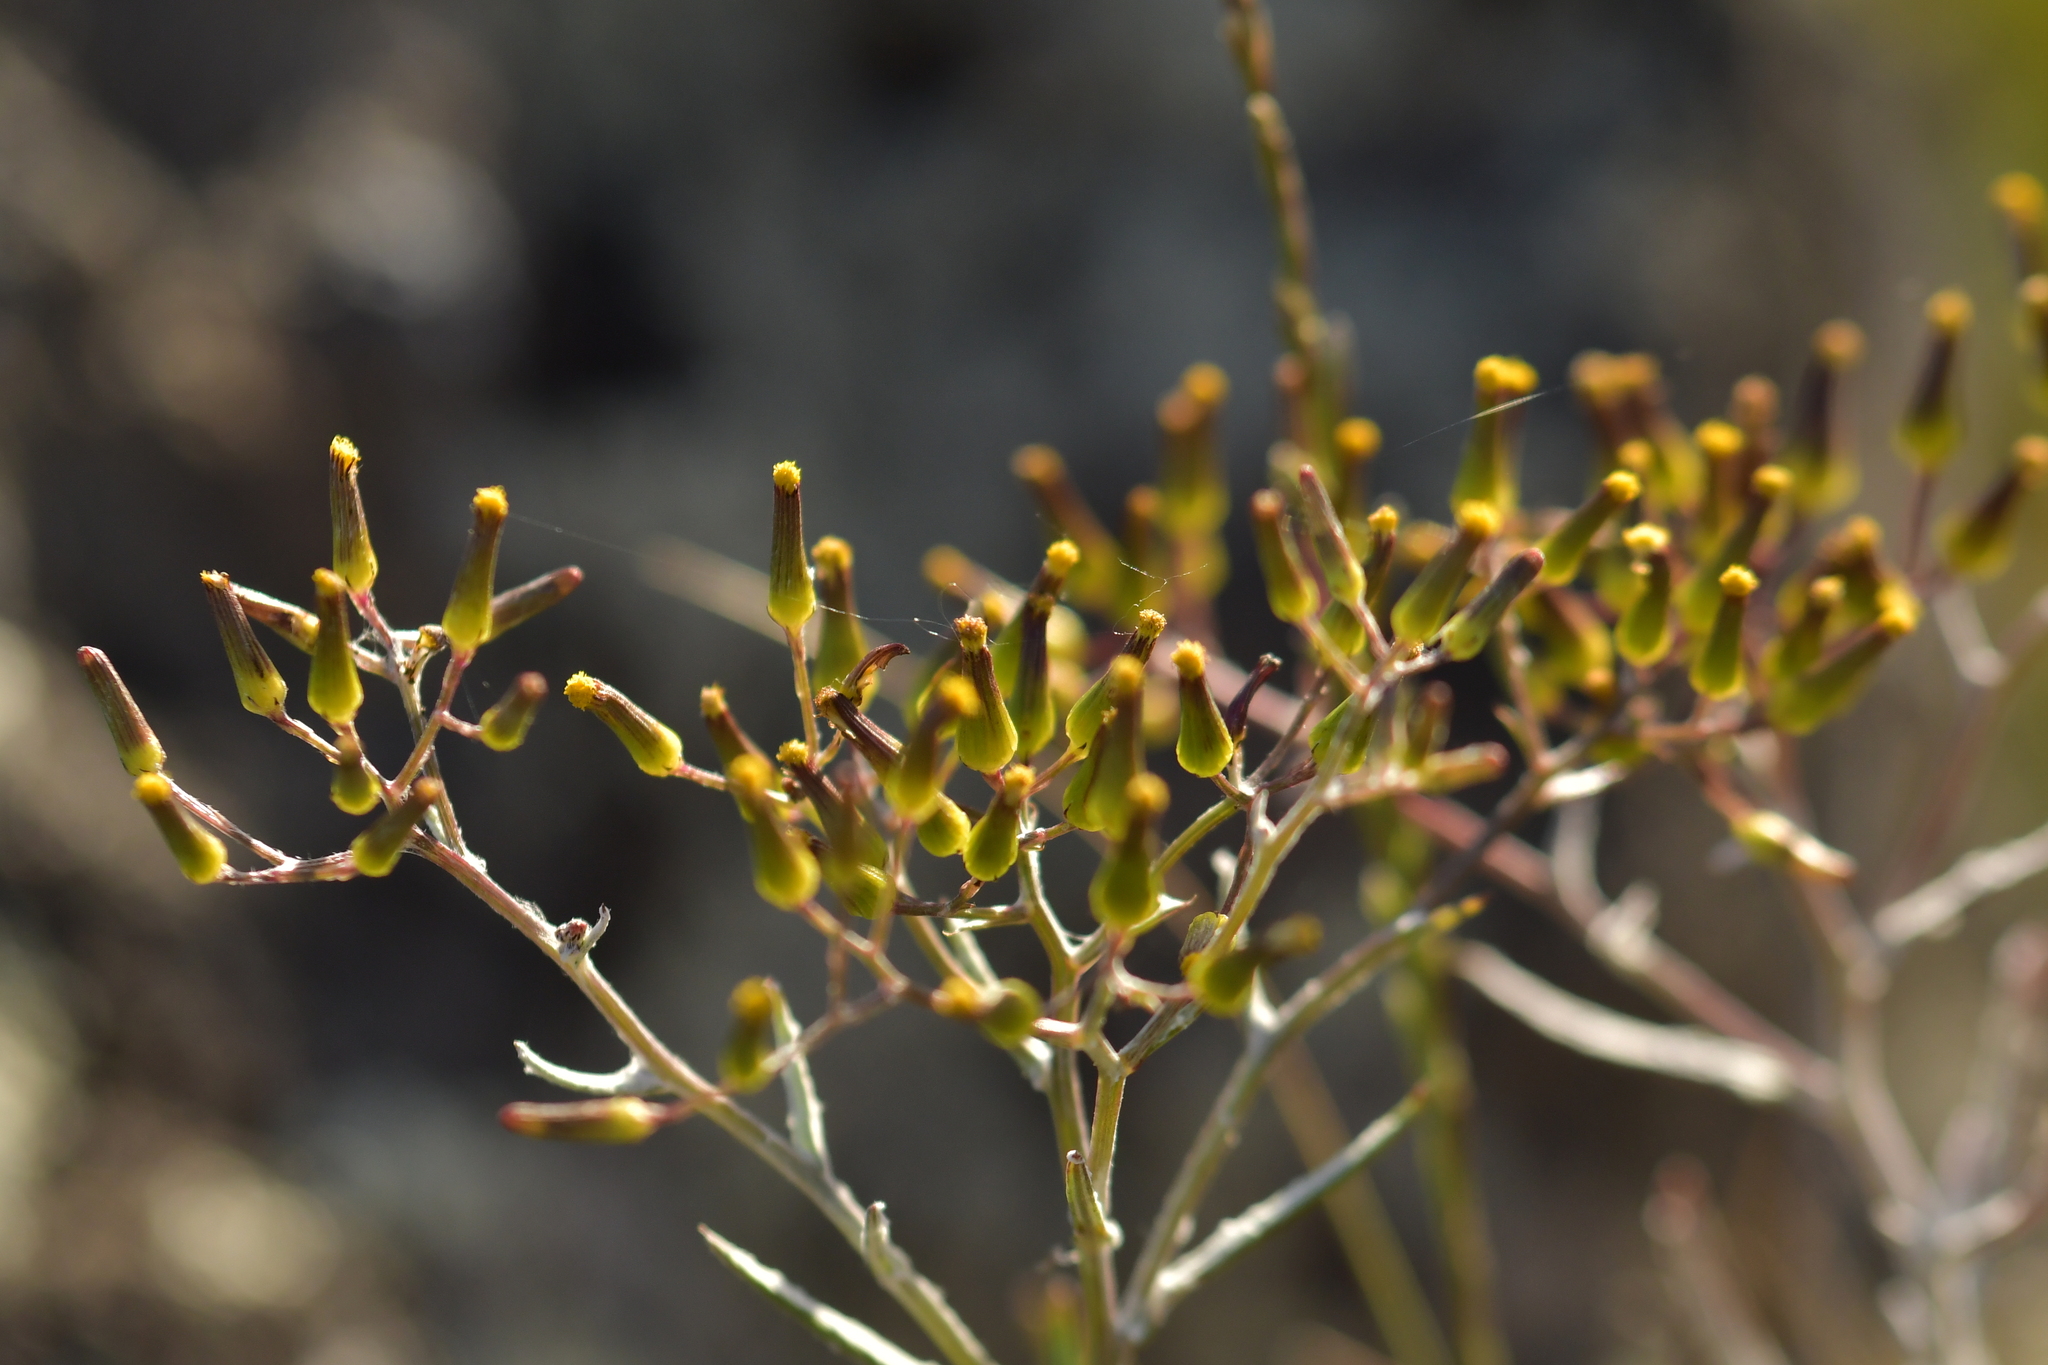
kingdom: Plantae
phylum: Tracheophyta
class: Magnoliopsida
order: Asterales
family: Asteraceae
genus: Senecio
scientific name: Senecio quadridentatus
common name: Cotton fireweed
